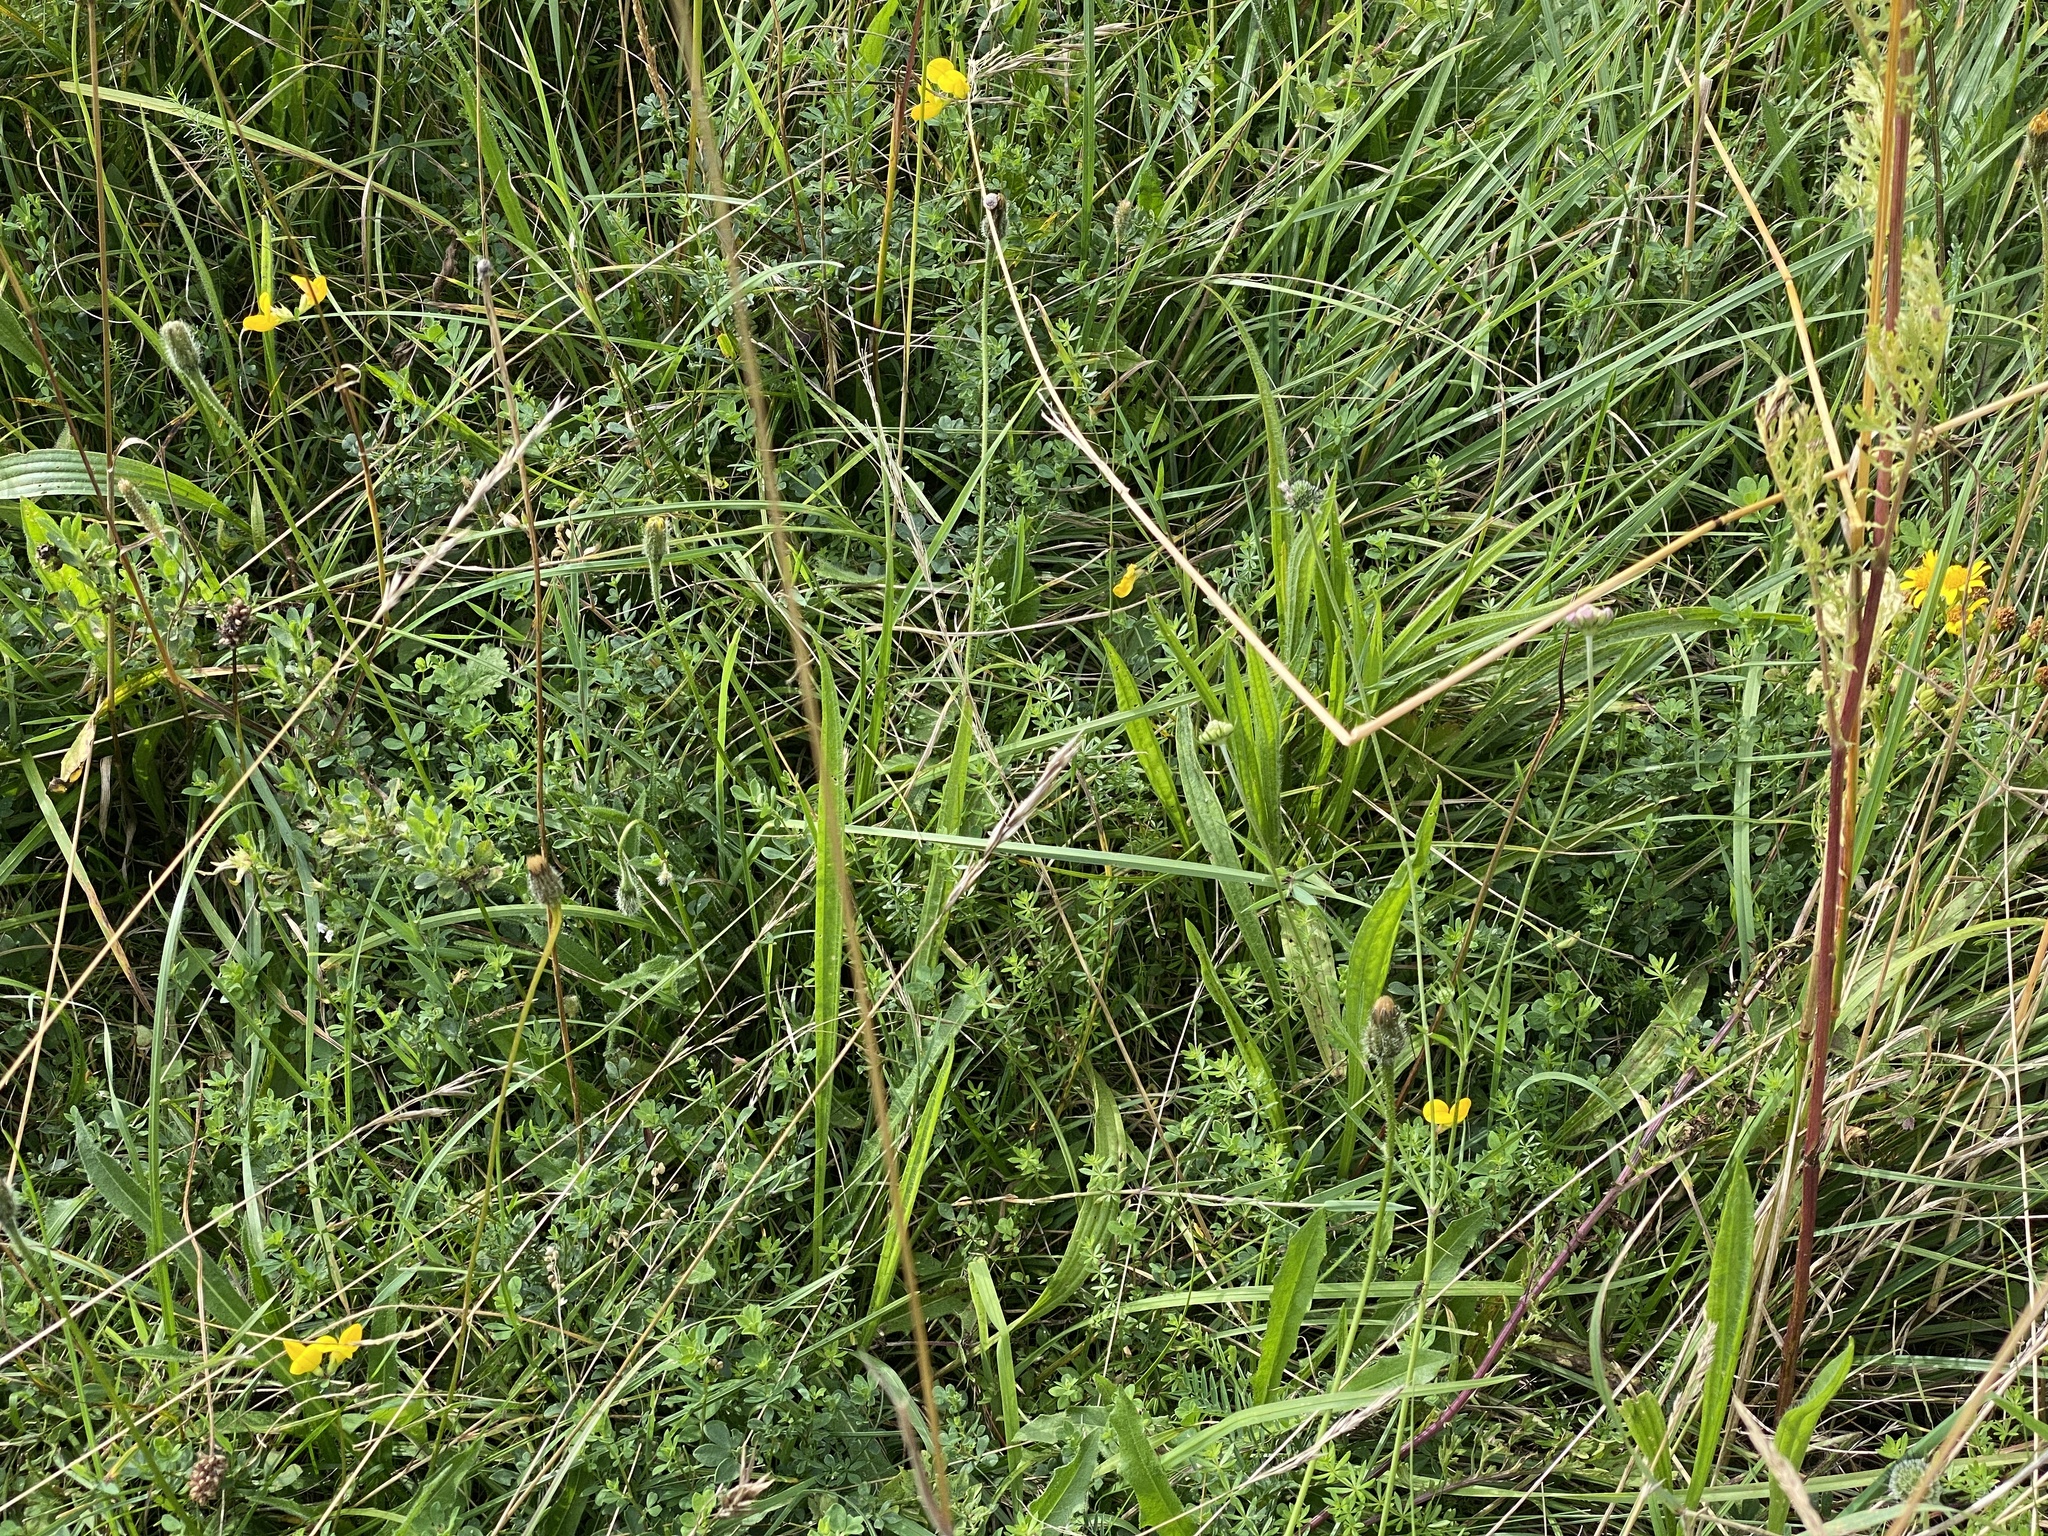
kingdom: Plantae
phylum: Tracheophyta
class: Magnoliopsida
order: Fabales
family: Fabaceae
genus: Lotus
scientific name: Lotus corniculatus
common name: Common bird's-foot-trefoil
